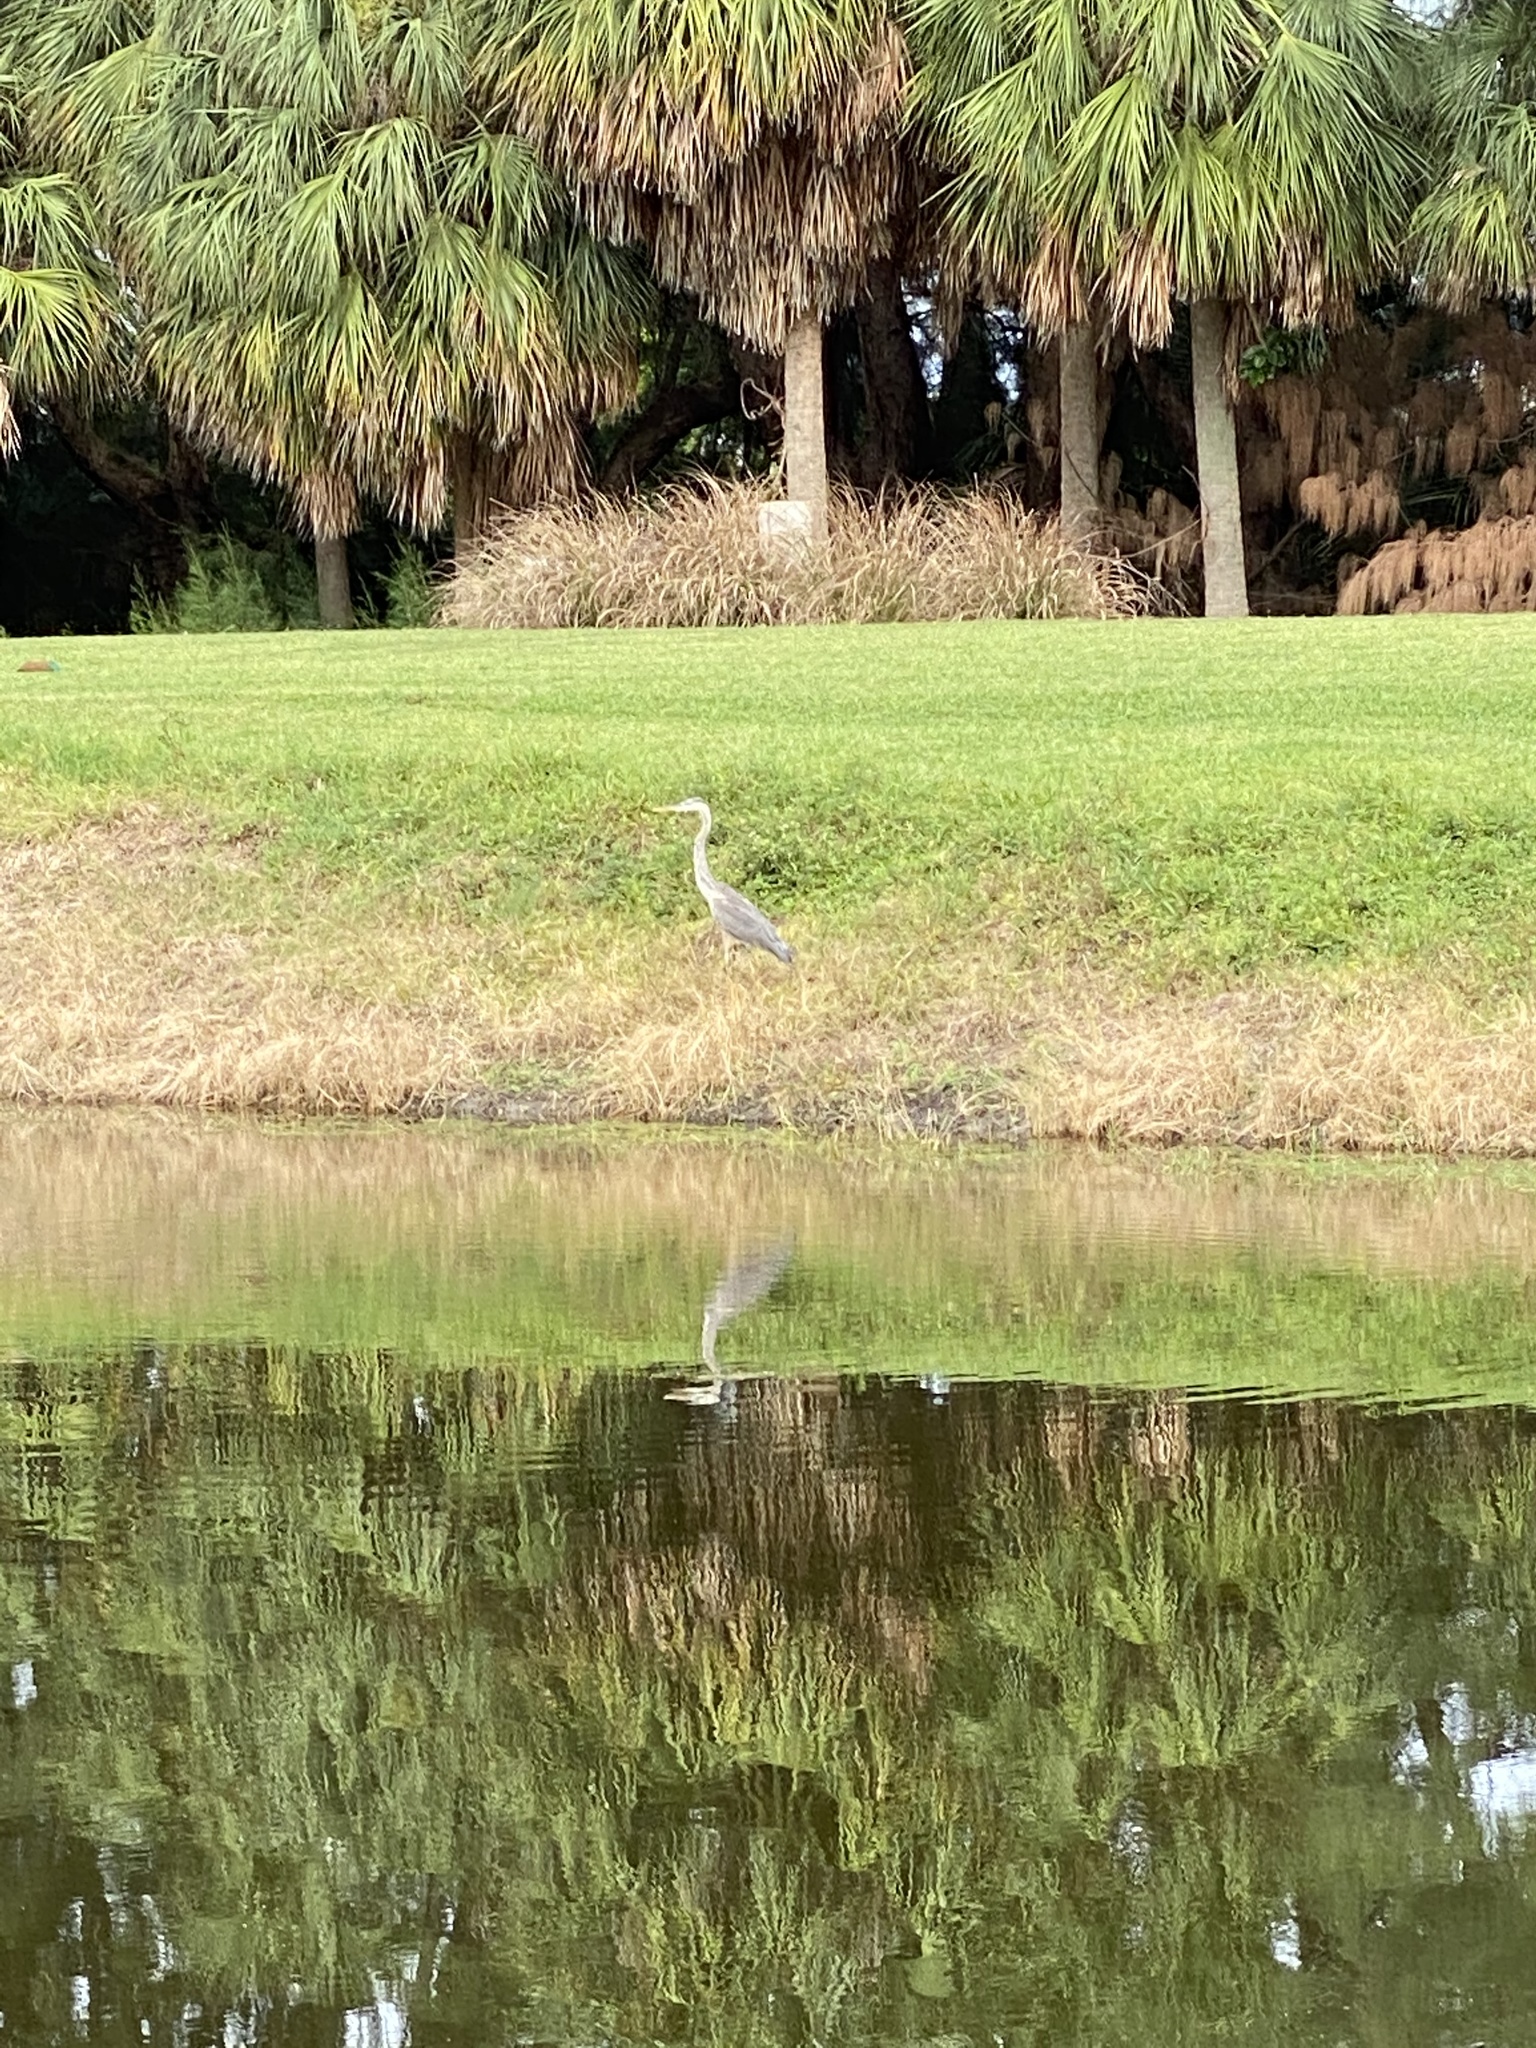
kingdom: Animalia
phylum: Chordata
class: Aves
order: Pelecaniformes
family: Ardeidae
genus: Ardea
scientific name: Ardea herodias
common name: Great blue heron
